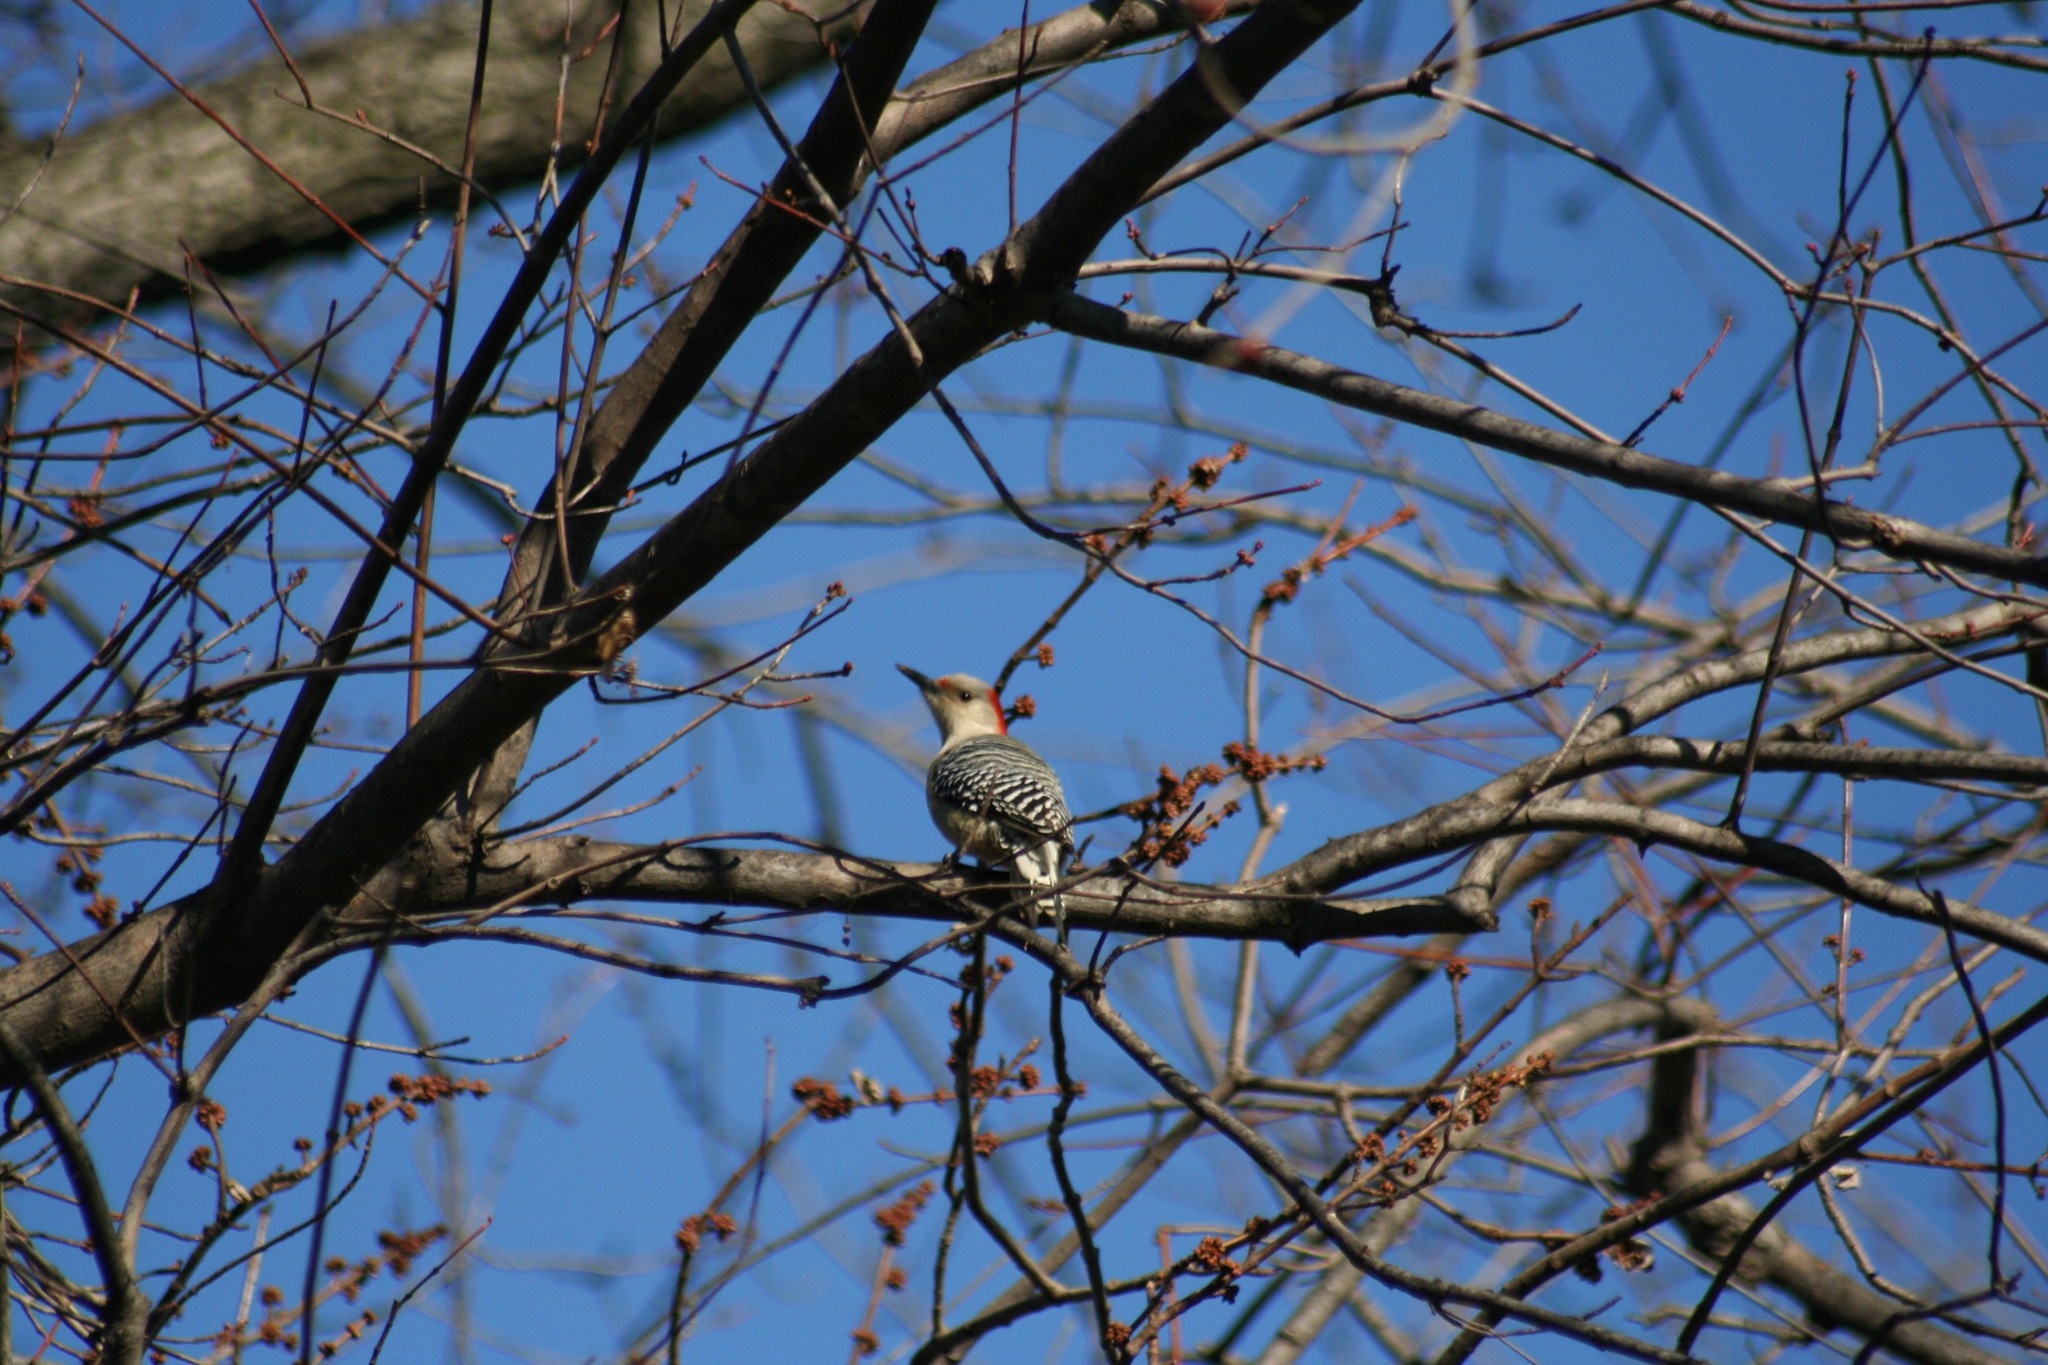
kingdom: Animalia
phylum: Chordata
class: Aves
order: Piciformes
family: Picidae
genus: Melanerpes
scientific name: Melanerpes carolinus
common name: Red-bellied woodpecker
